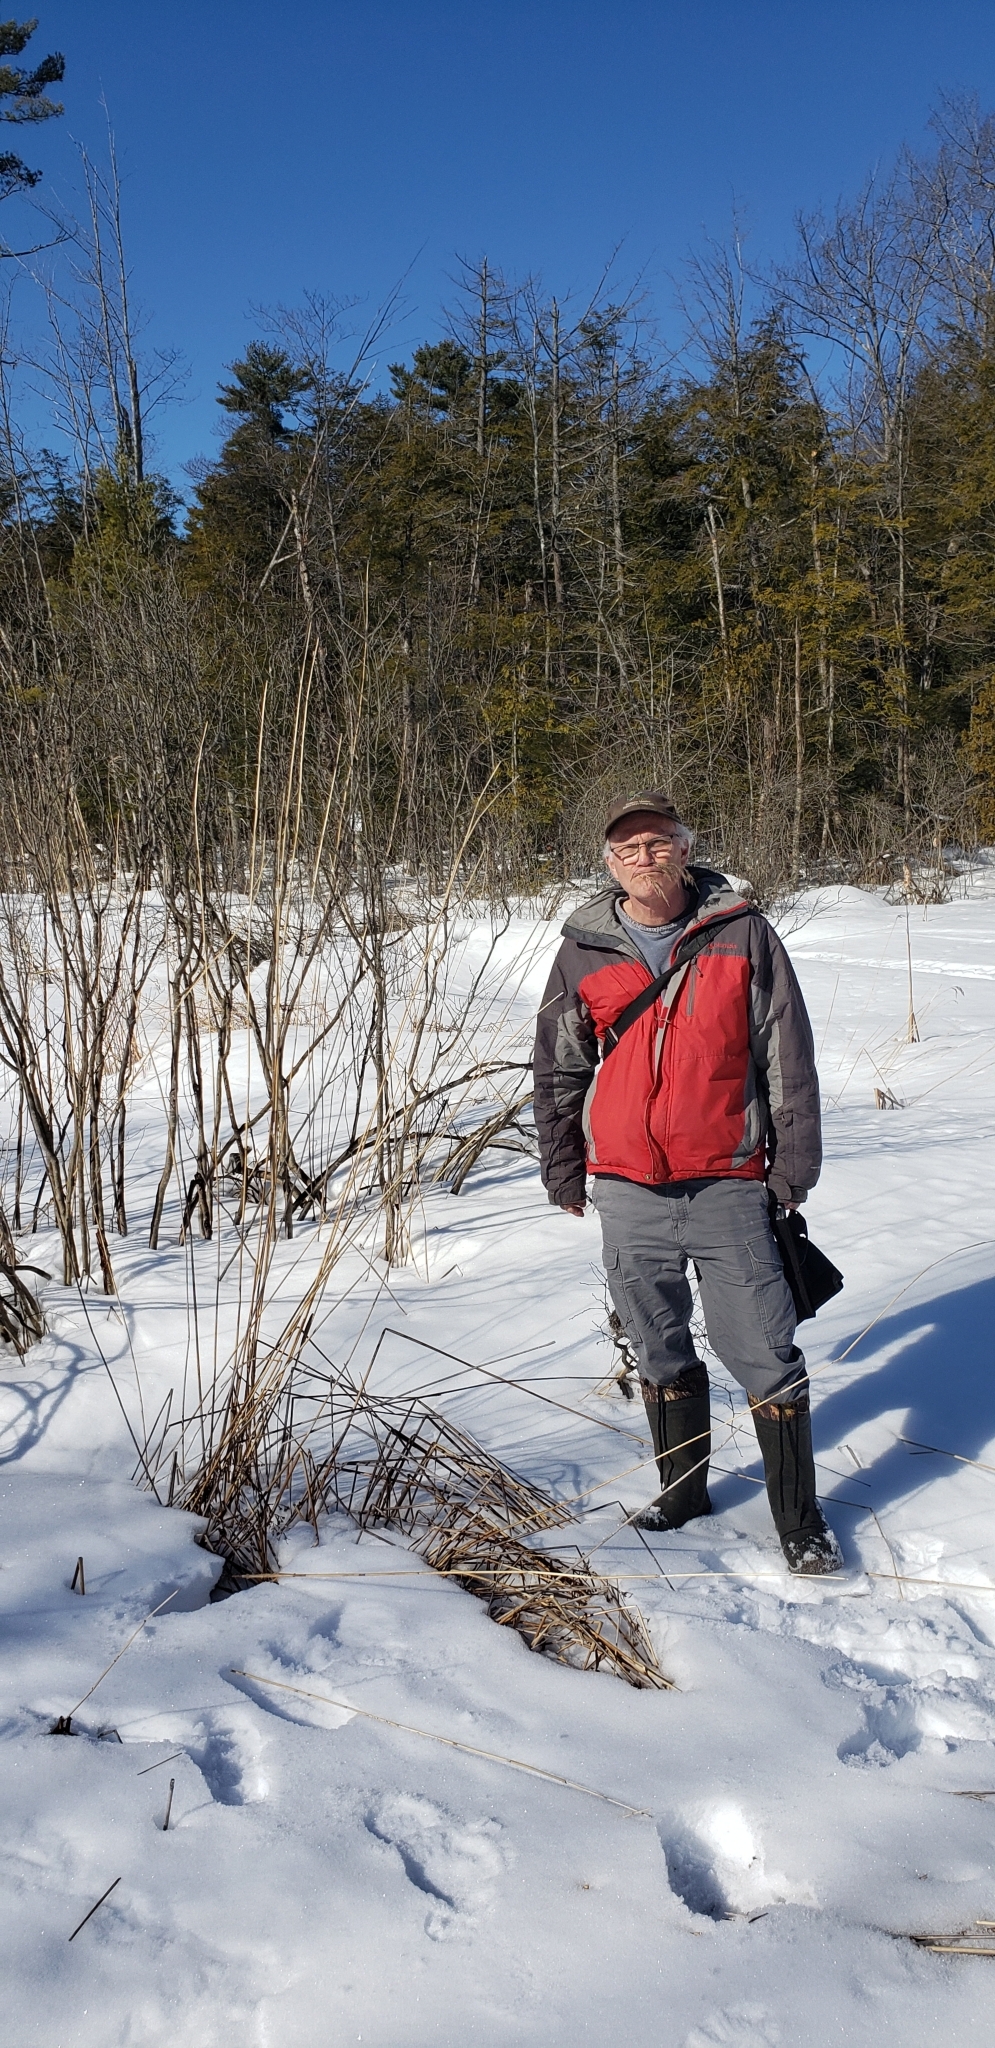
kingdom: Plantae
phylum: Tracheophyta
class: Liliopsida
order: Poales
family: Poaceae
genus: Phragmites
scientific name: Phragmites australis
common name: Common reed
